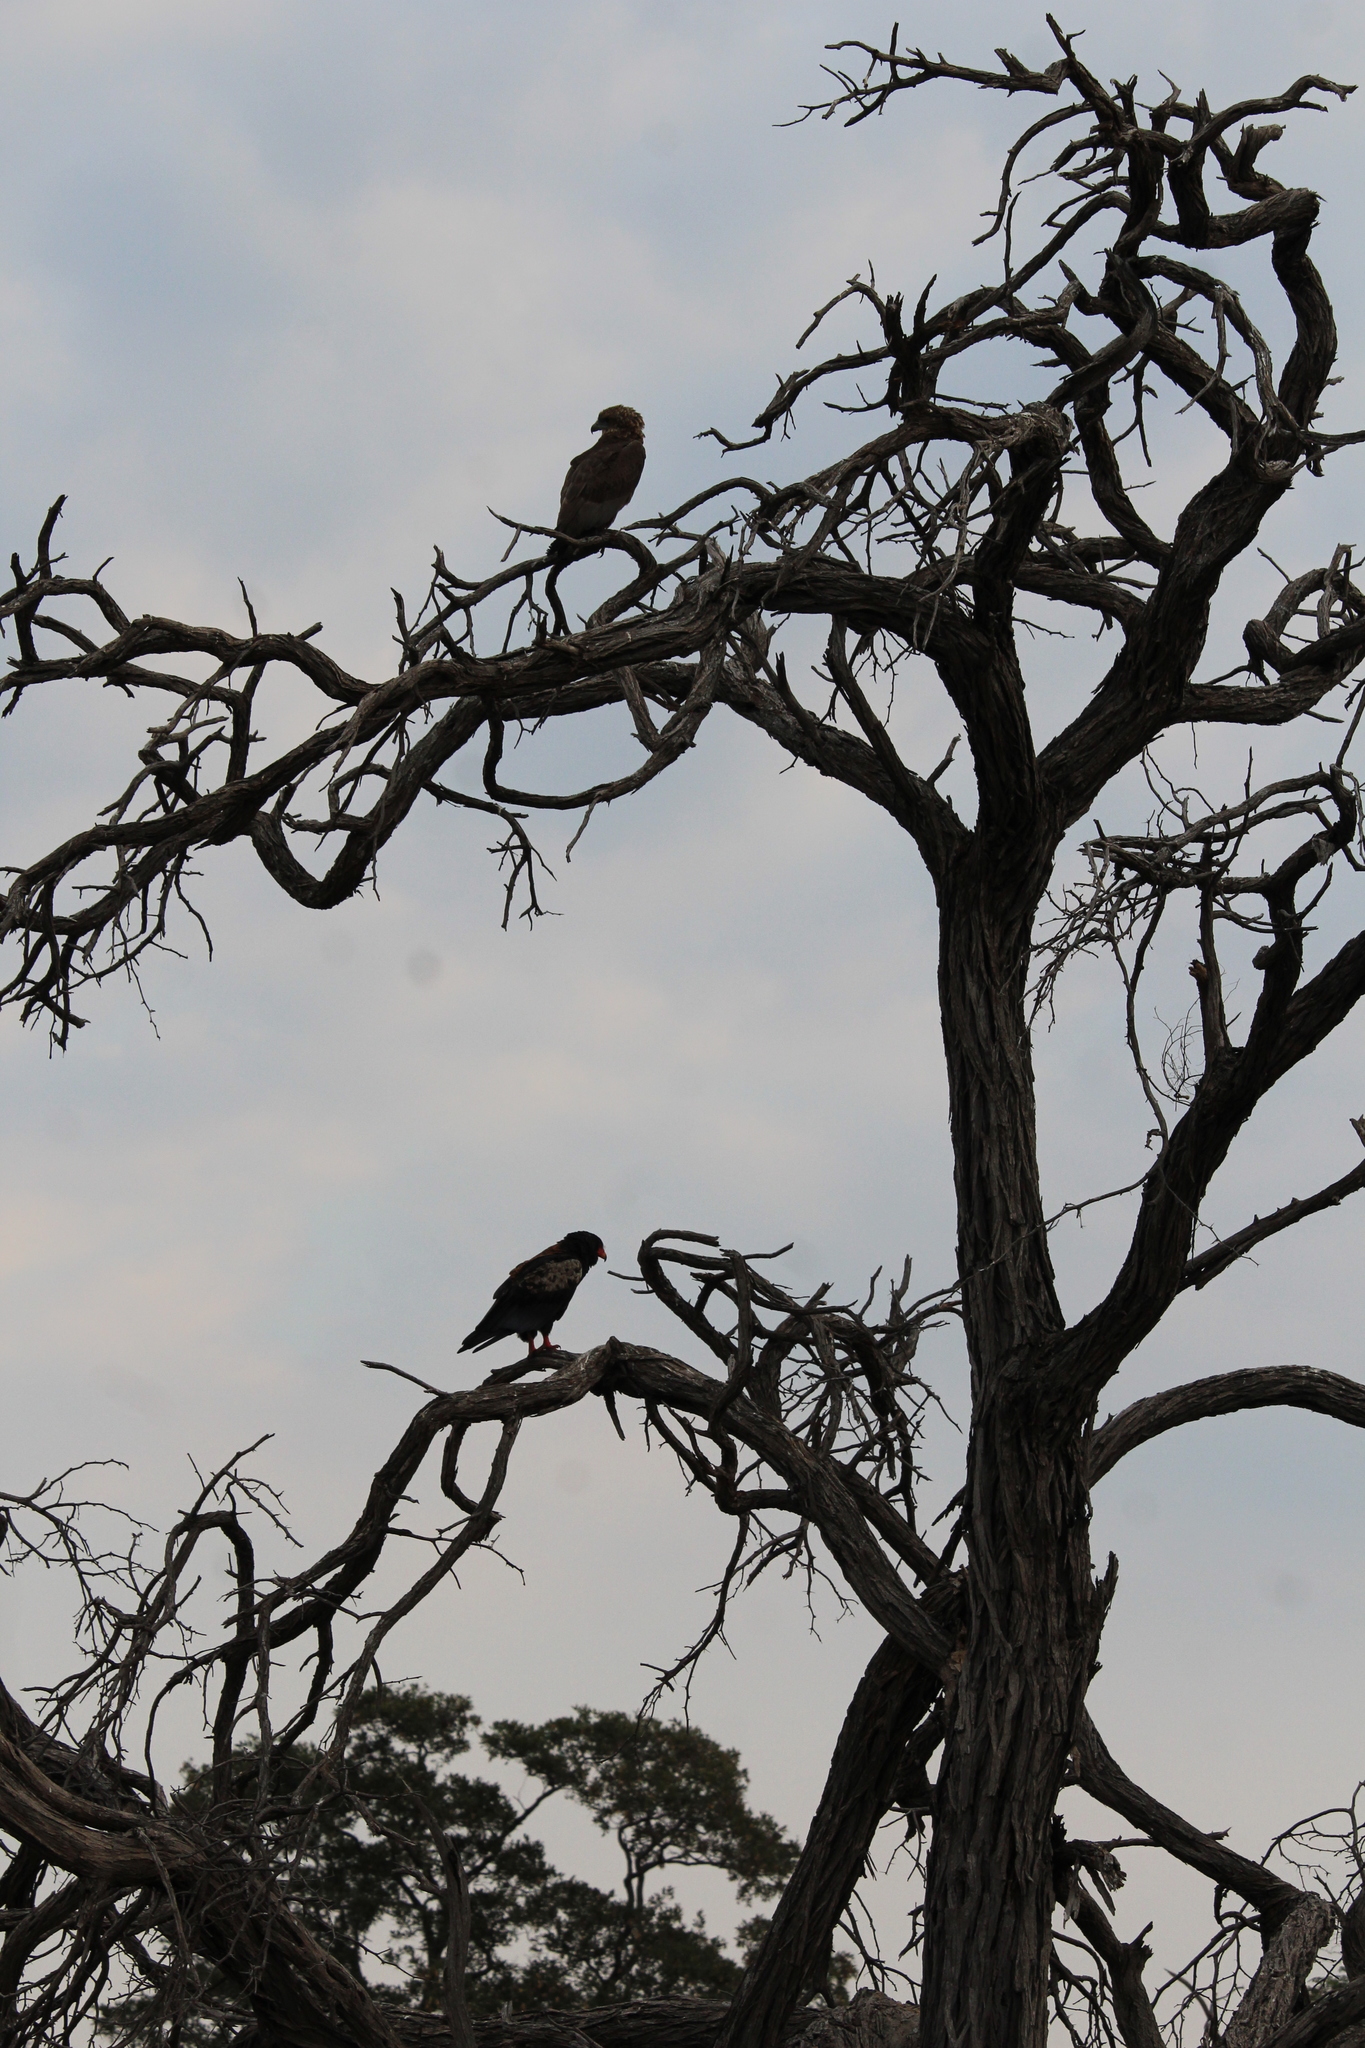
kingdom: Animalia
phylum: Chordata
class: Aves
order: Accipitriformes
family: Accipitridae
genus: Terathopius
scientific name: Terathopius ecaudatus
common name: Bateleur
